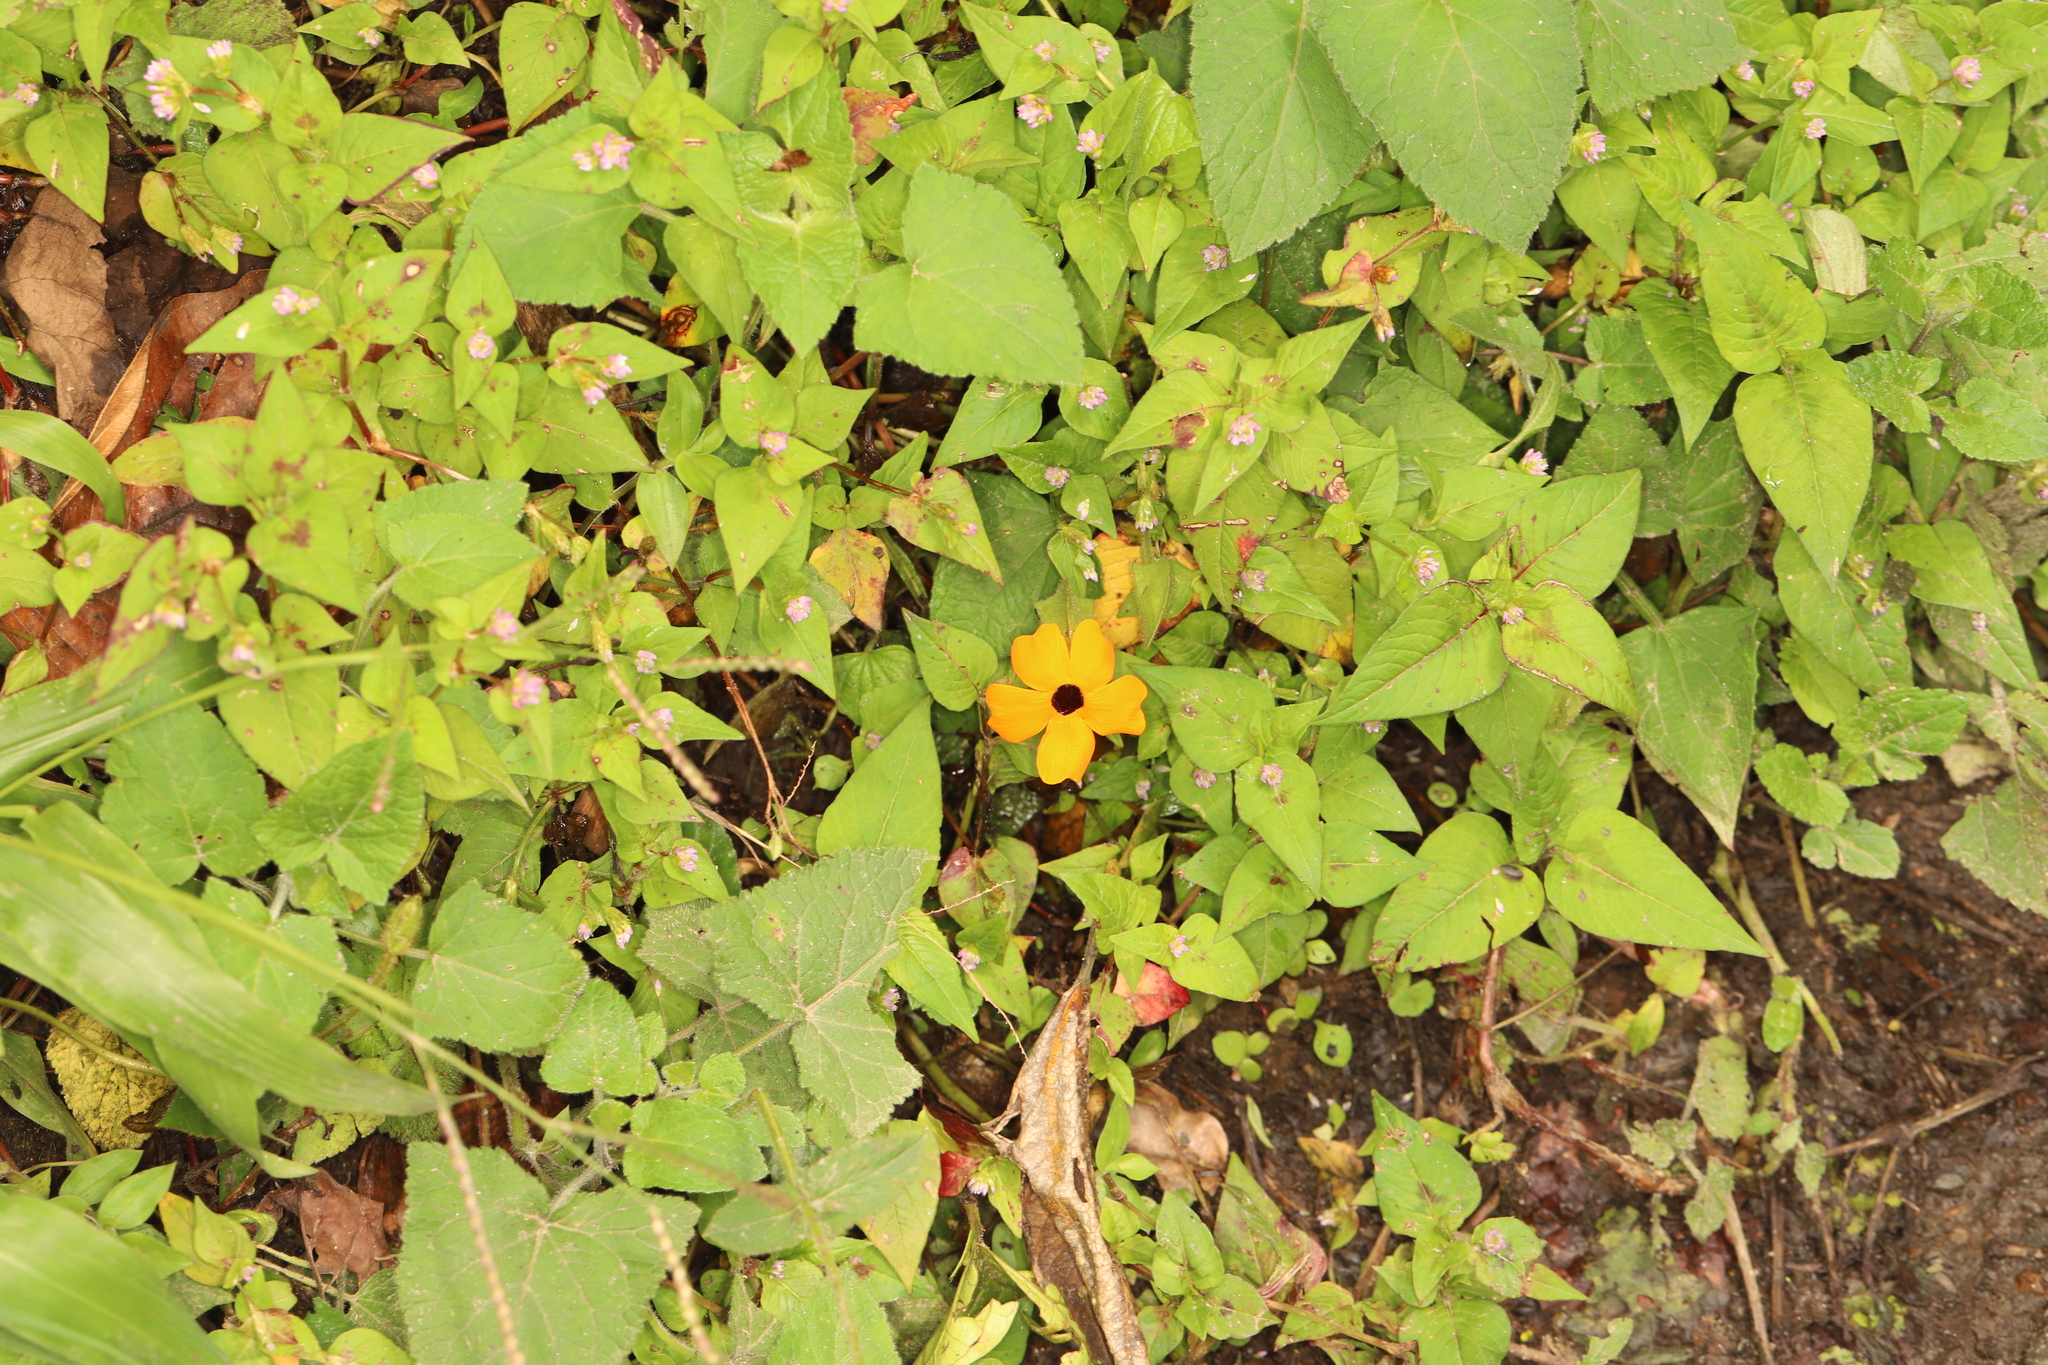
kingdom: Plantae
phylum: Tracheophyta
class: Magnoliopsida
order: Lamiales
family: Acanthaceae
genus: Thunbergia
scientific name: Thunbergia alata
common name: Blackeyed susan vine
